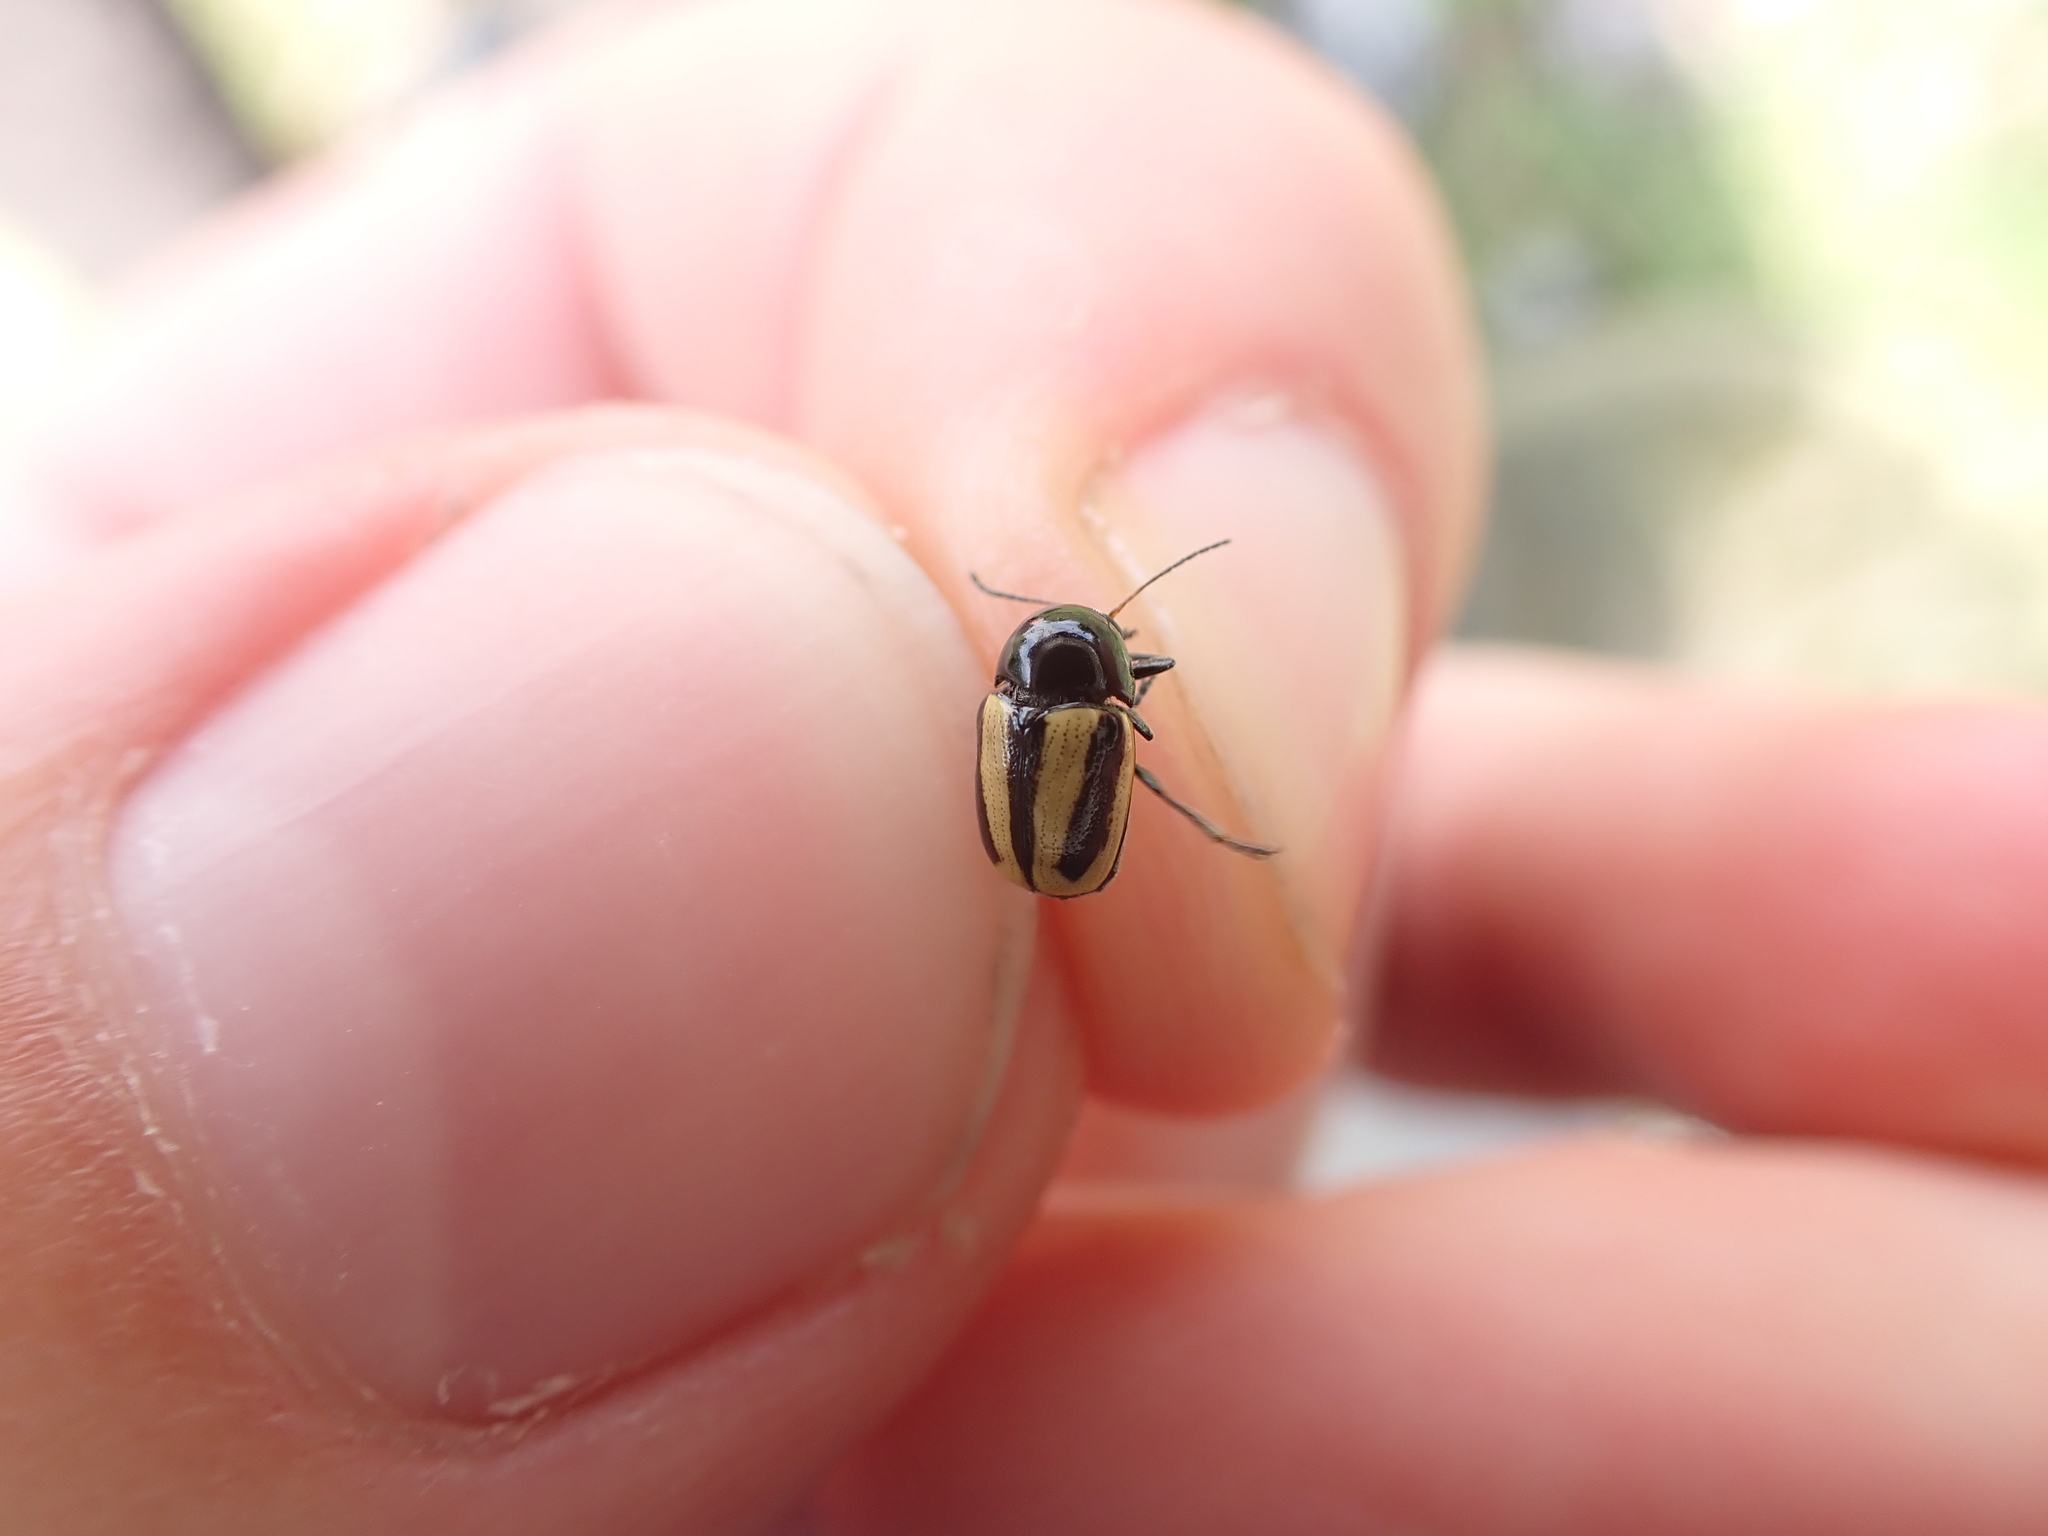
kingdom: Animalia
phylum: Arthropoda
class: Insecta
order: Coleoptera
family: Chrysomelidae
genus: Acalymma
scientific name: Acalymma vittatum
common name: Striped cucumber beetle
